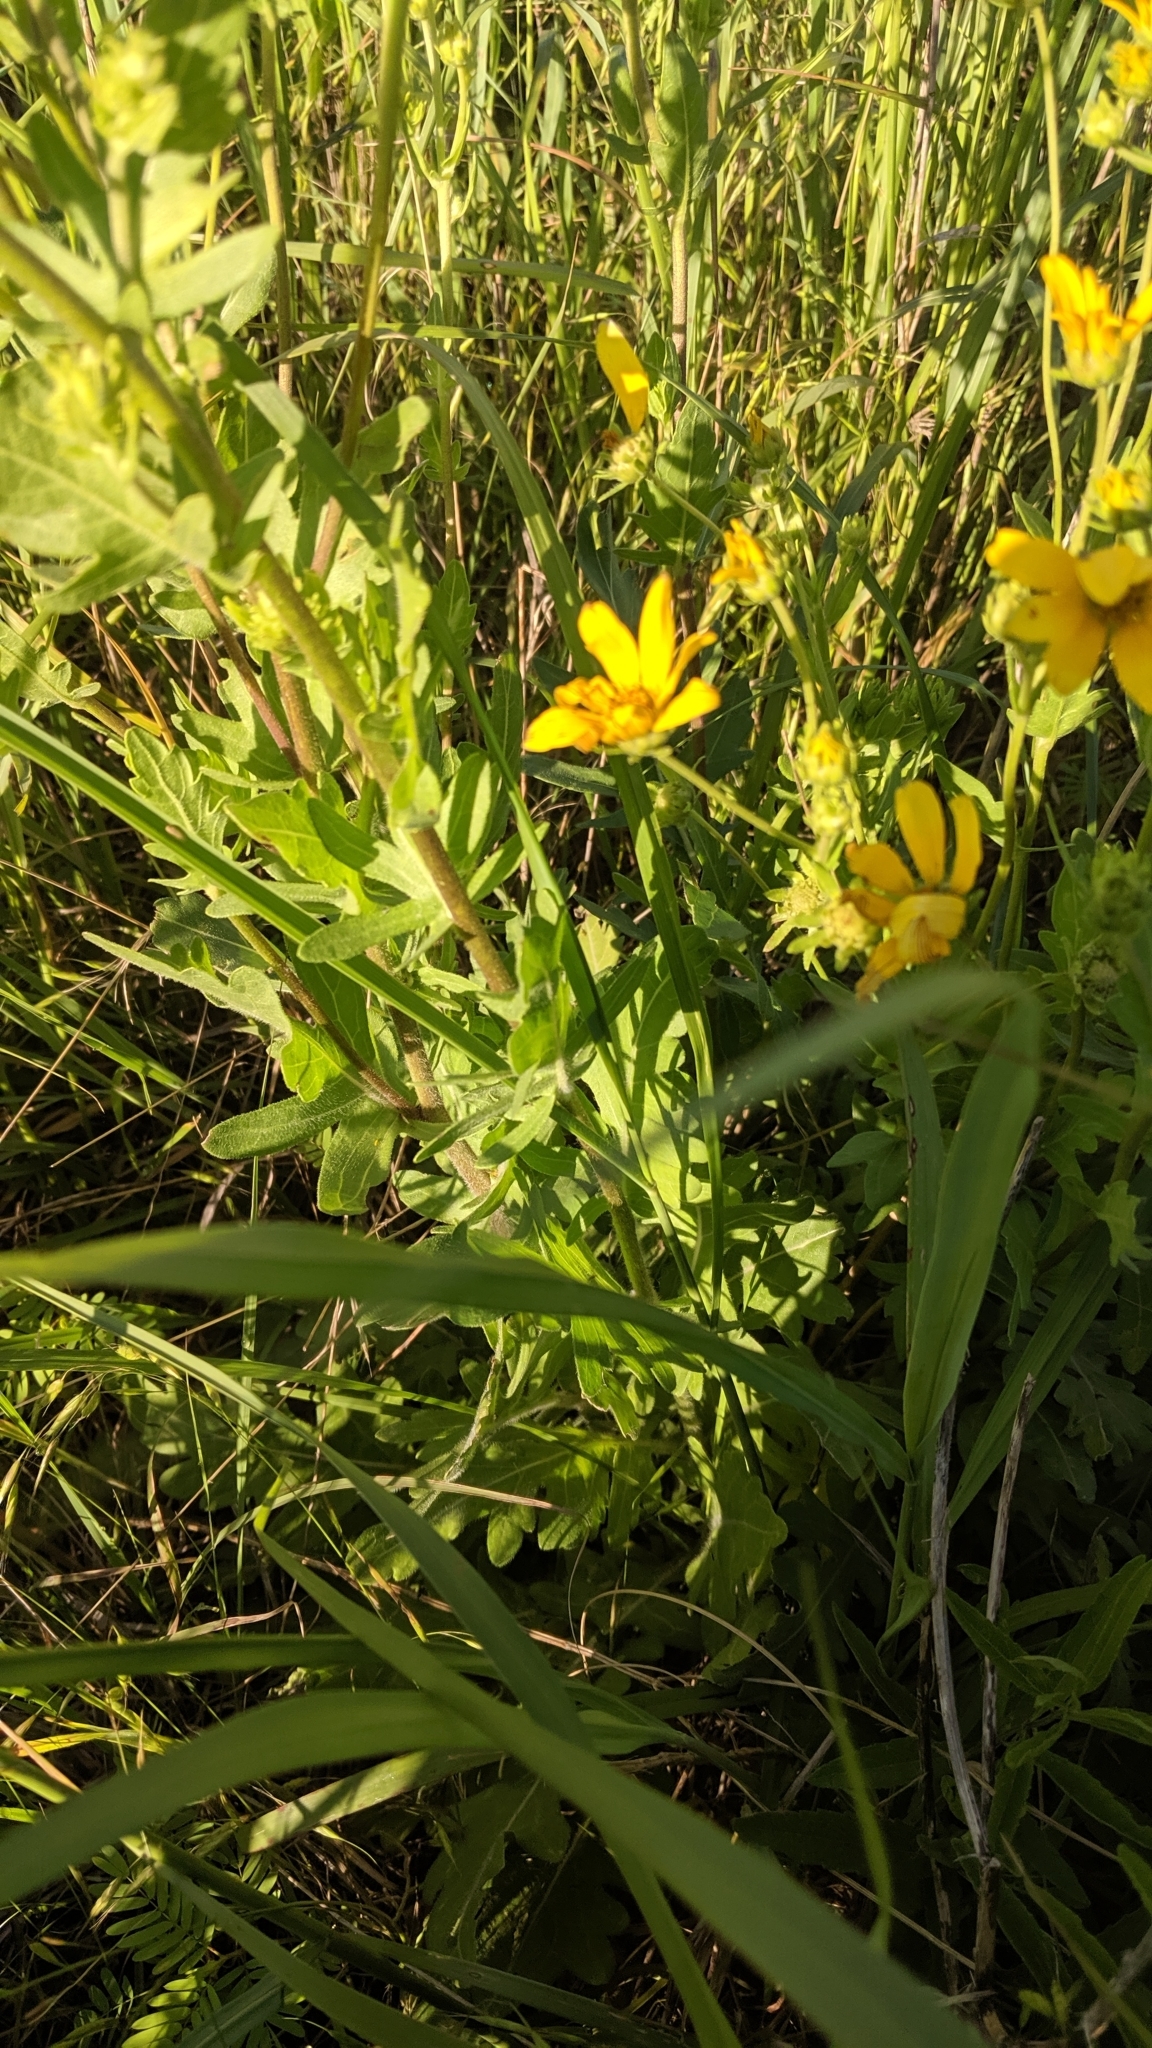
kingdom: Plantae
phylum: Tracheophyta
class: Magnoliopsida
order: Asterales
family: Asteraceae
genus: Engelmannia
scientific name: Engelmannia peristenia
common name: Engelmann's daisy
